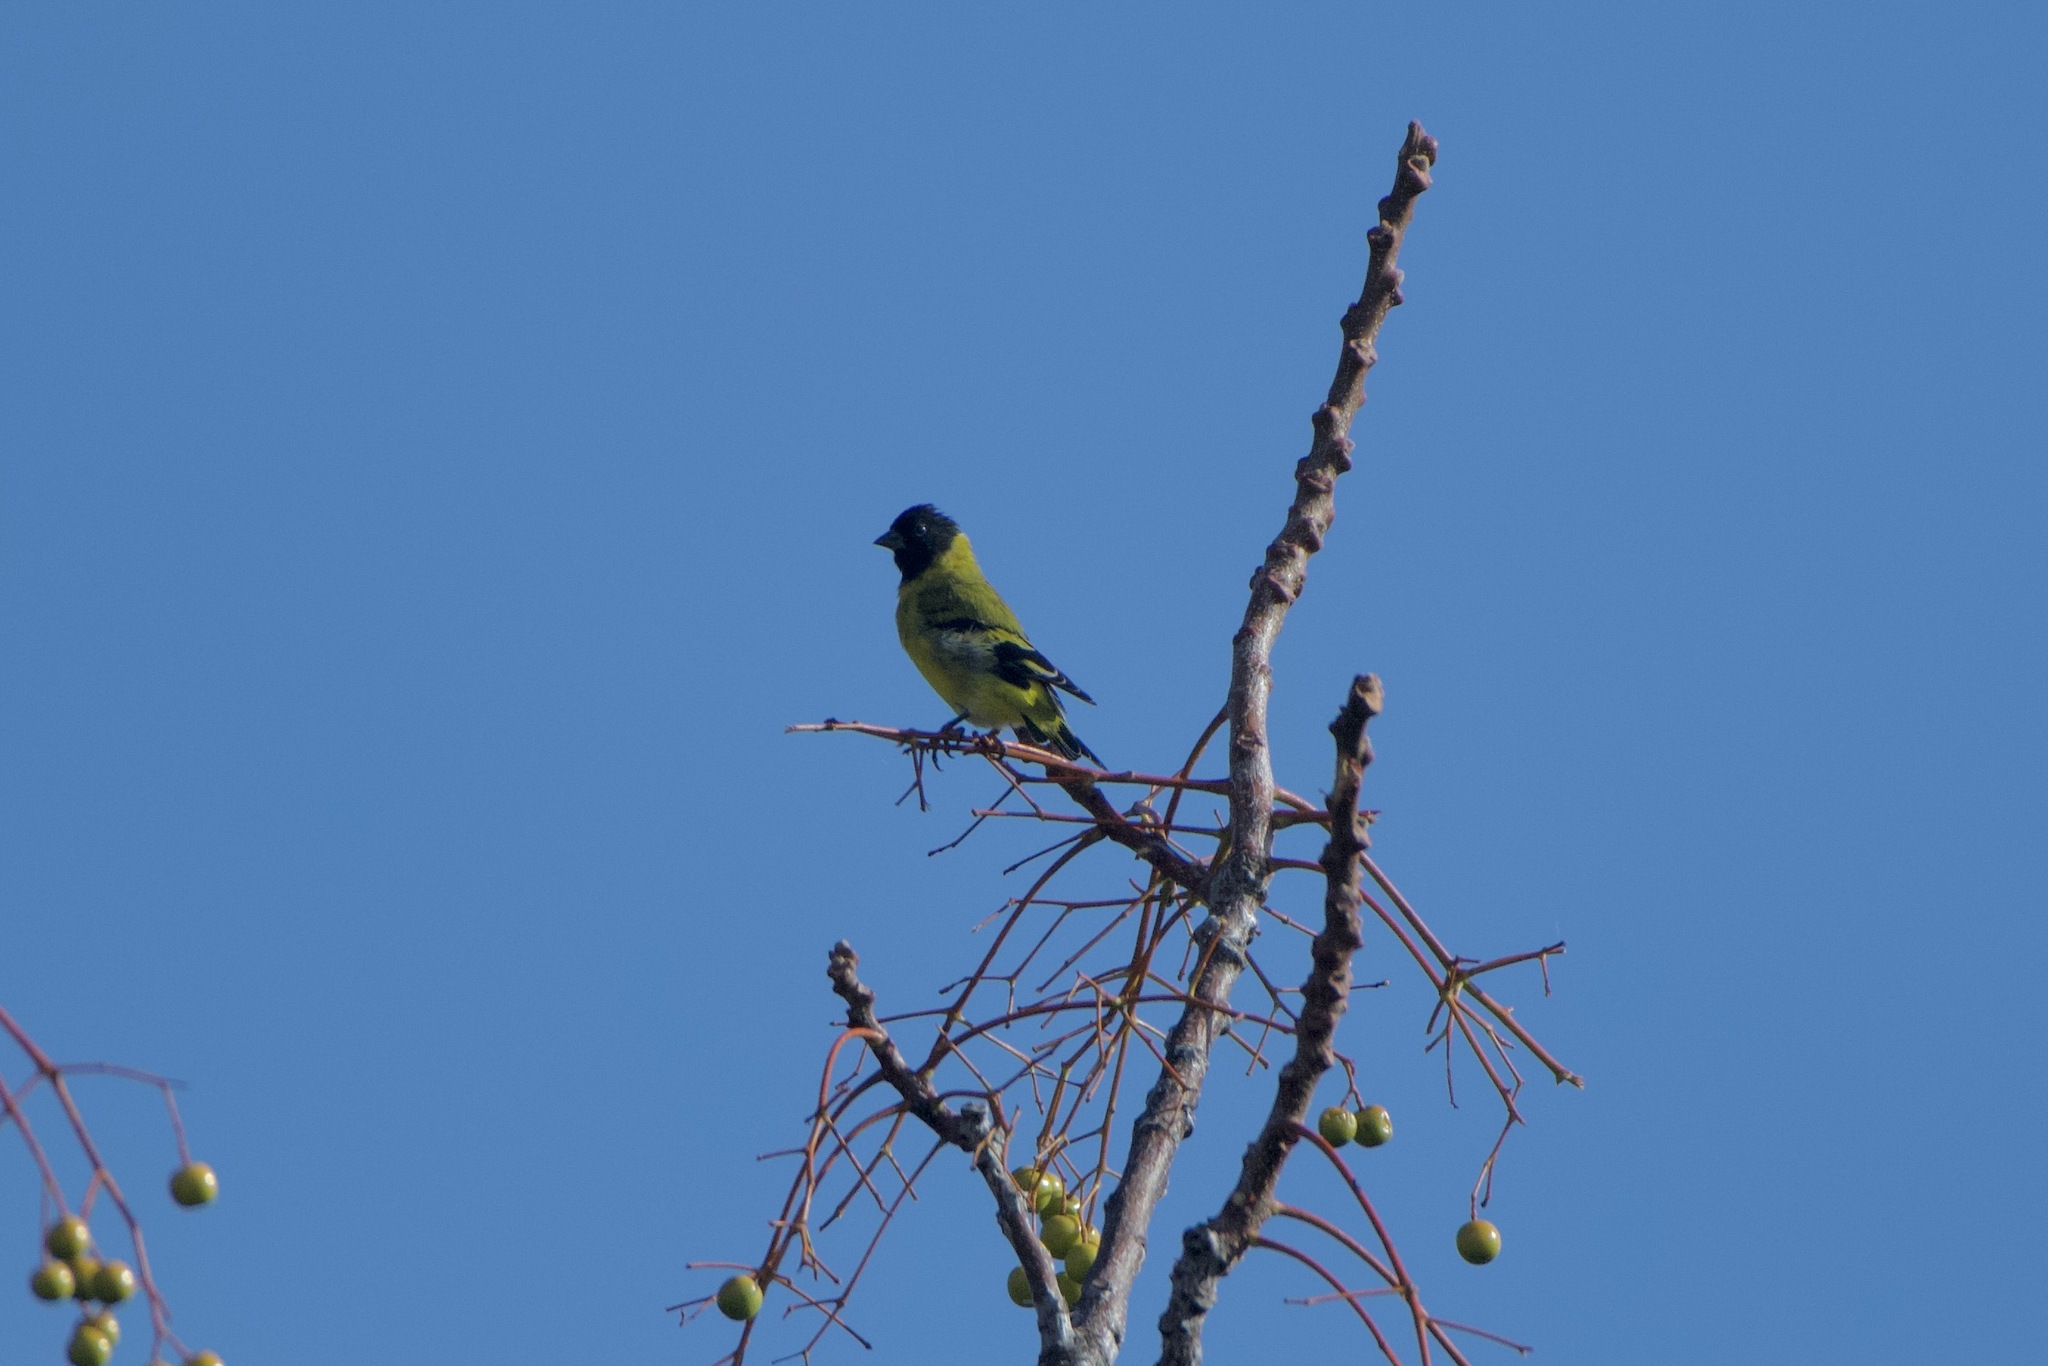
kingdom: Animalia
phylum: Chordata
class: Aves
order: Passeriformes
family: Fringillidae
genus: Spinus
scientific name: Spinus magellanicus
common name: Hooded siskin
